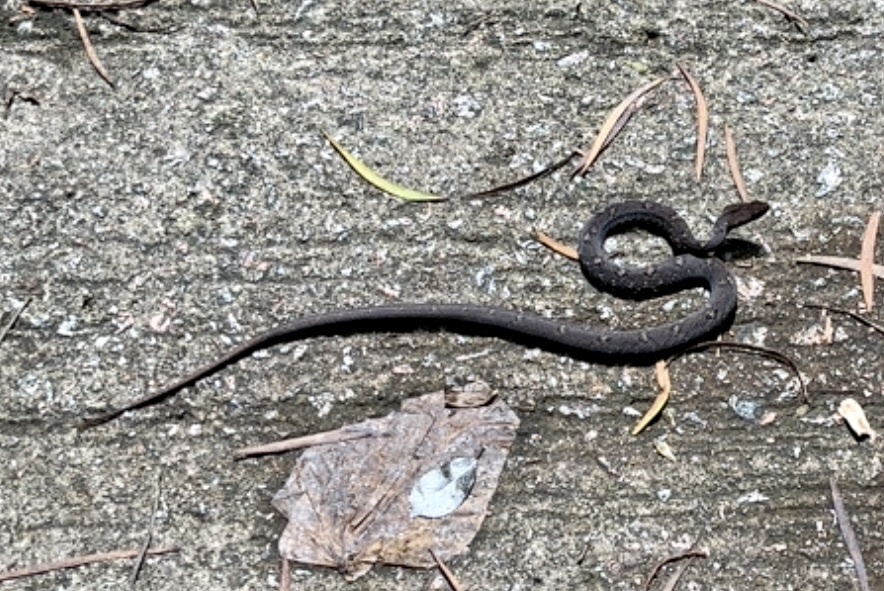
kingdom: Animalia
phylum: Chordata
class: Squamata
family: Pseudaspididae
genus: Psammodynastes
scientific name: Psammodynastes pulverulentus
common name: Common mock viper
